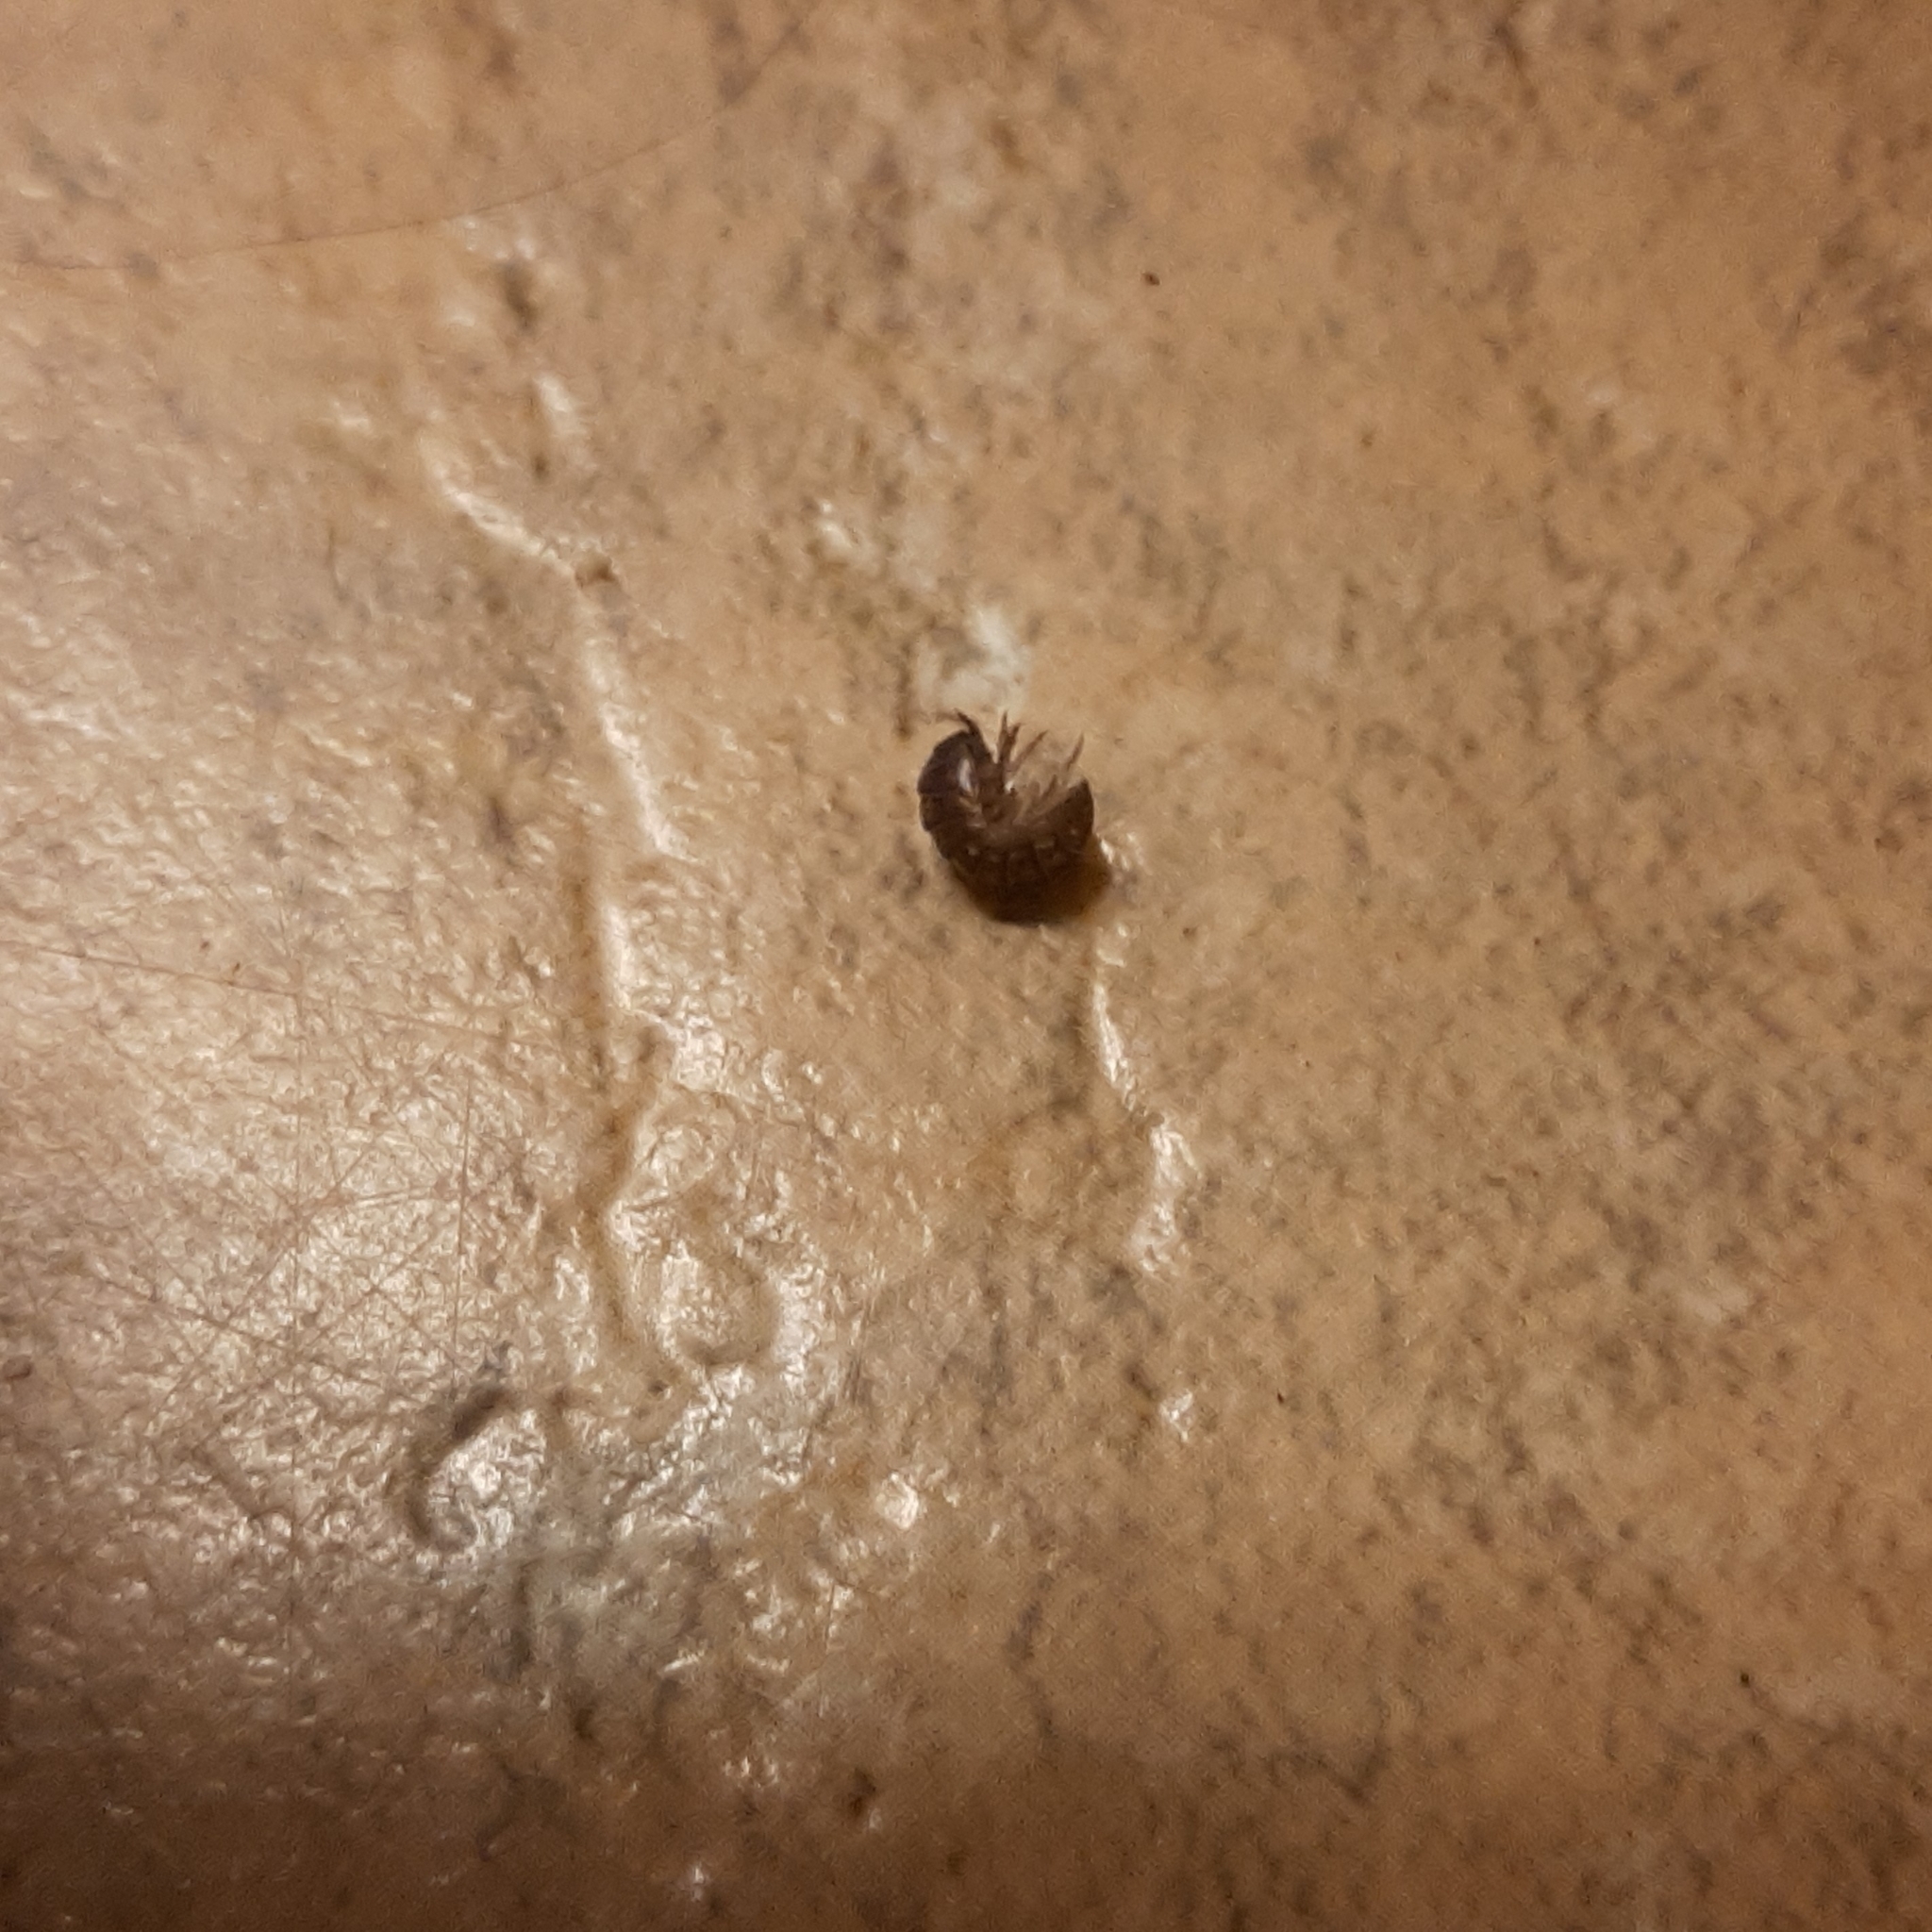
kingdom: Animalia
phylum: Arthropoda
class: Malacostraca
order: Isopoda
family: Armadillidiidae
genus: Armadillidium
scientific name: Armadillidium vulgare
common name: Common pill woodlouse
